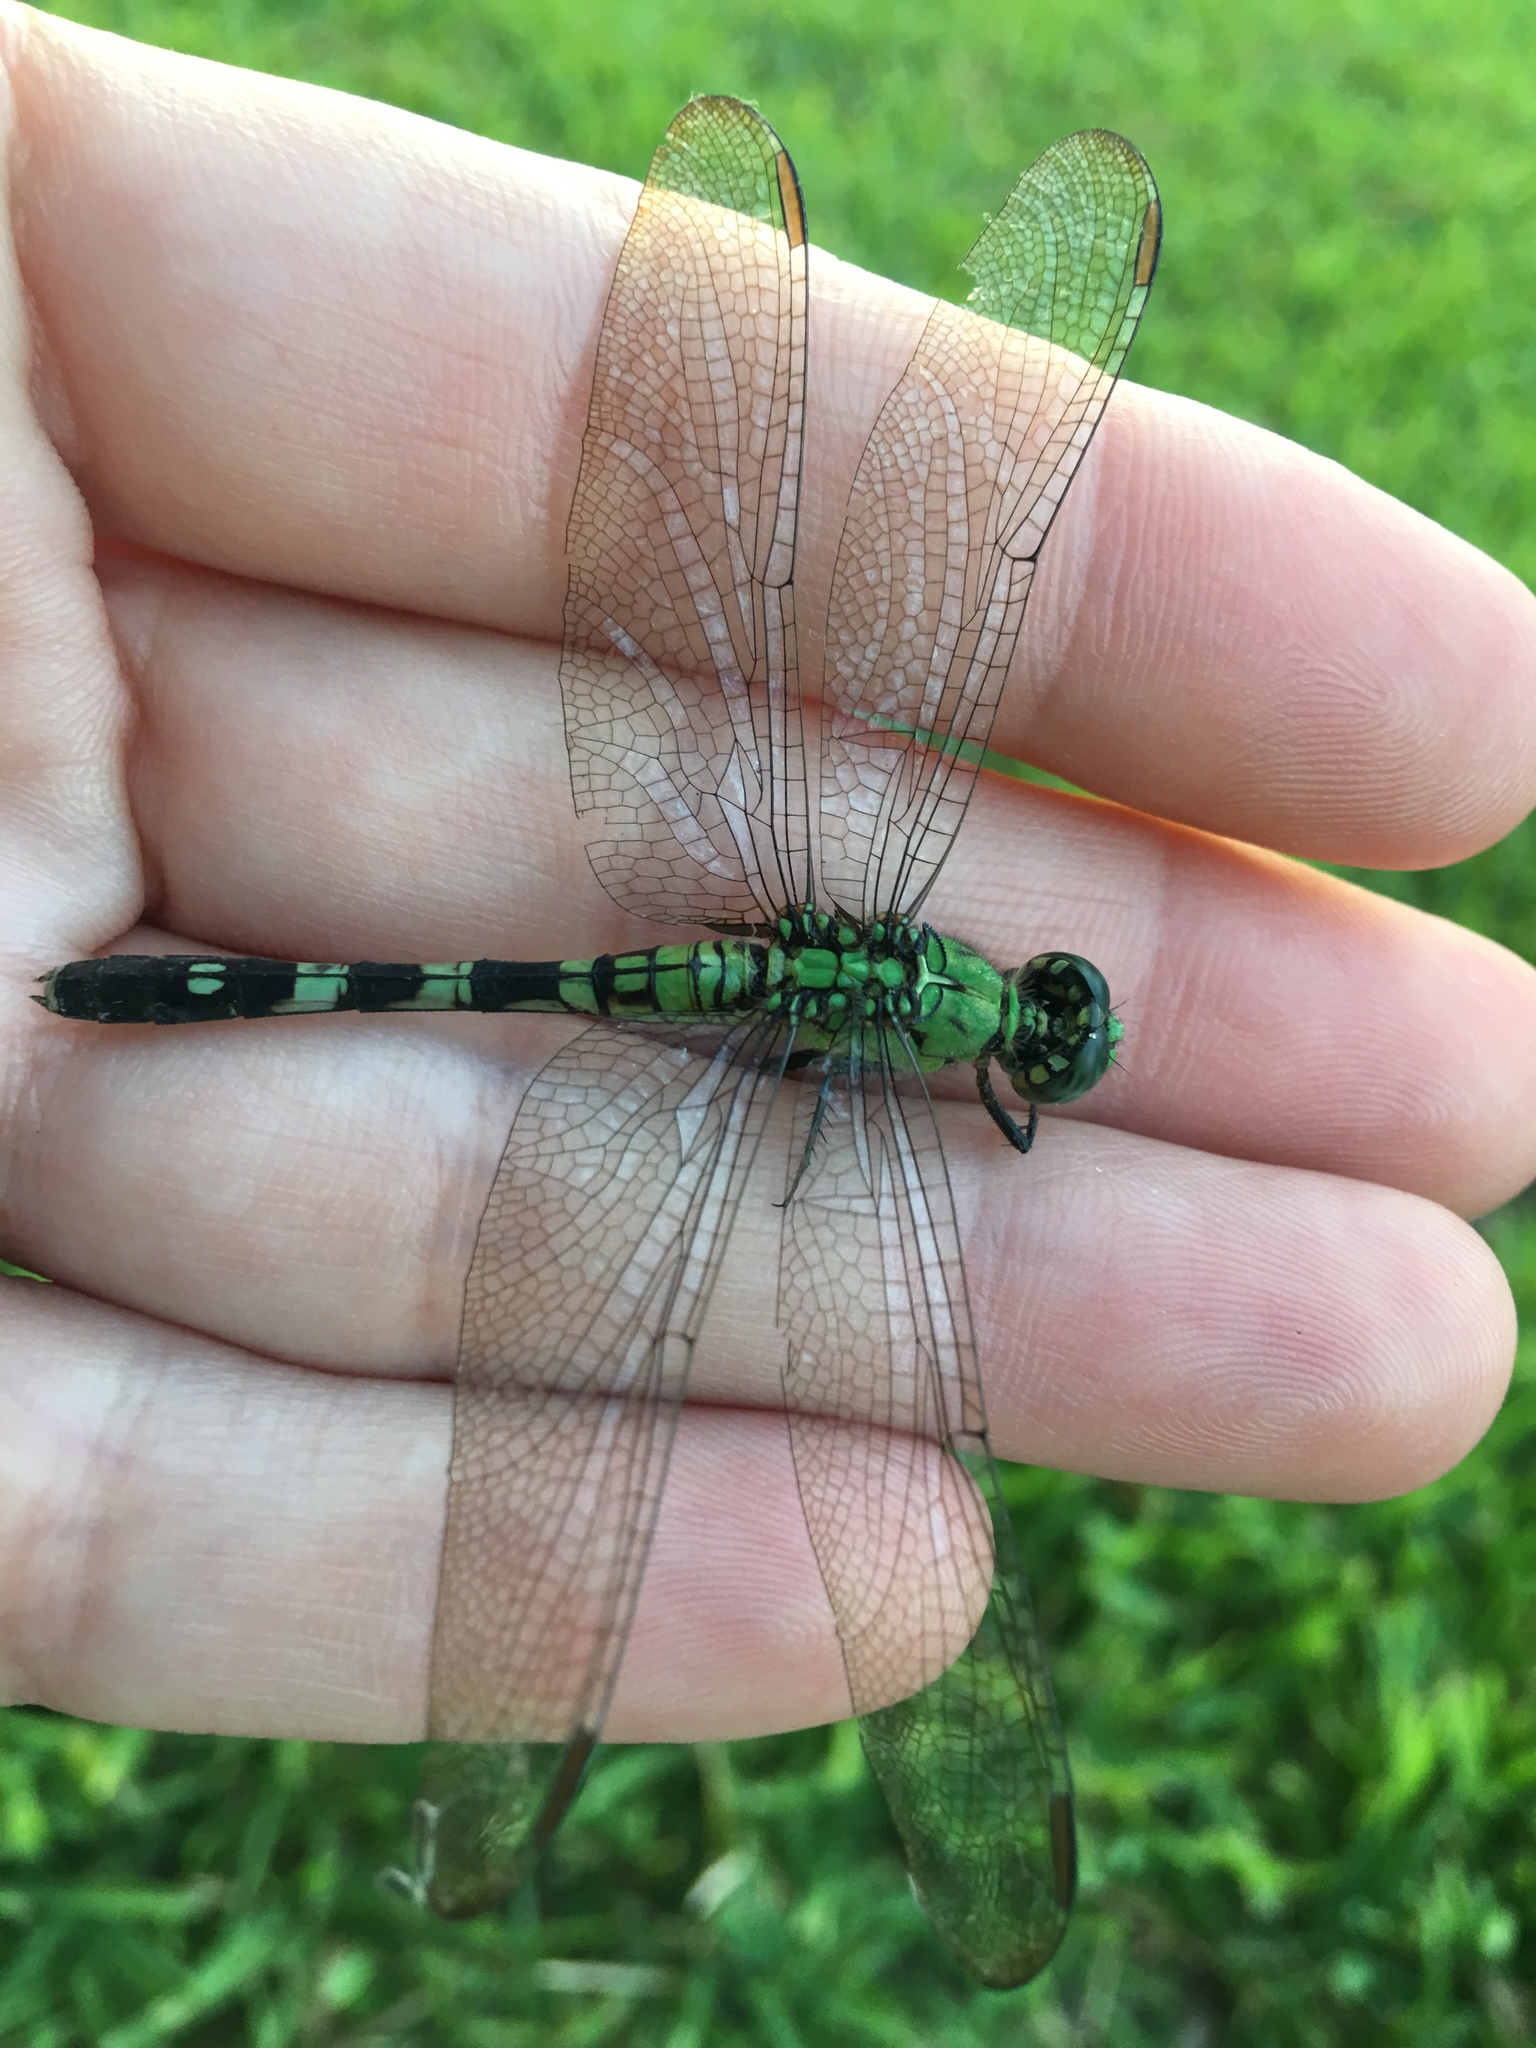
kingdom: Animalia
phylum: Arthropoda
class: Insecta
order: Odonata
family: Libellulidae
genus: Erythemis
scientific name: Erythemis simplicicollis
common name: Eastern pondhawk
